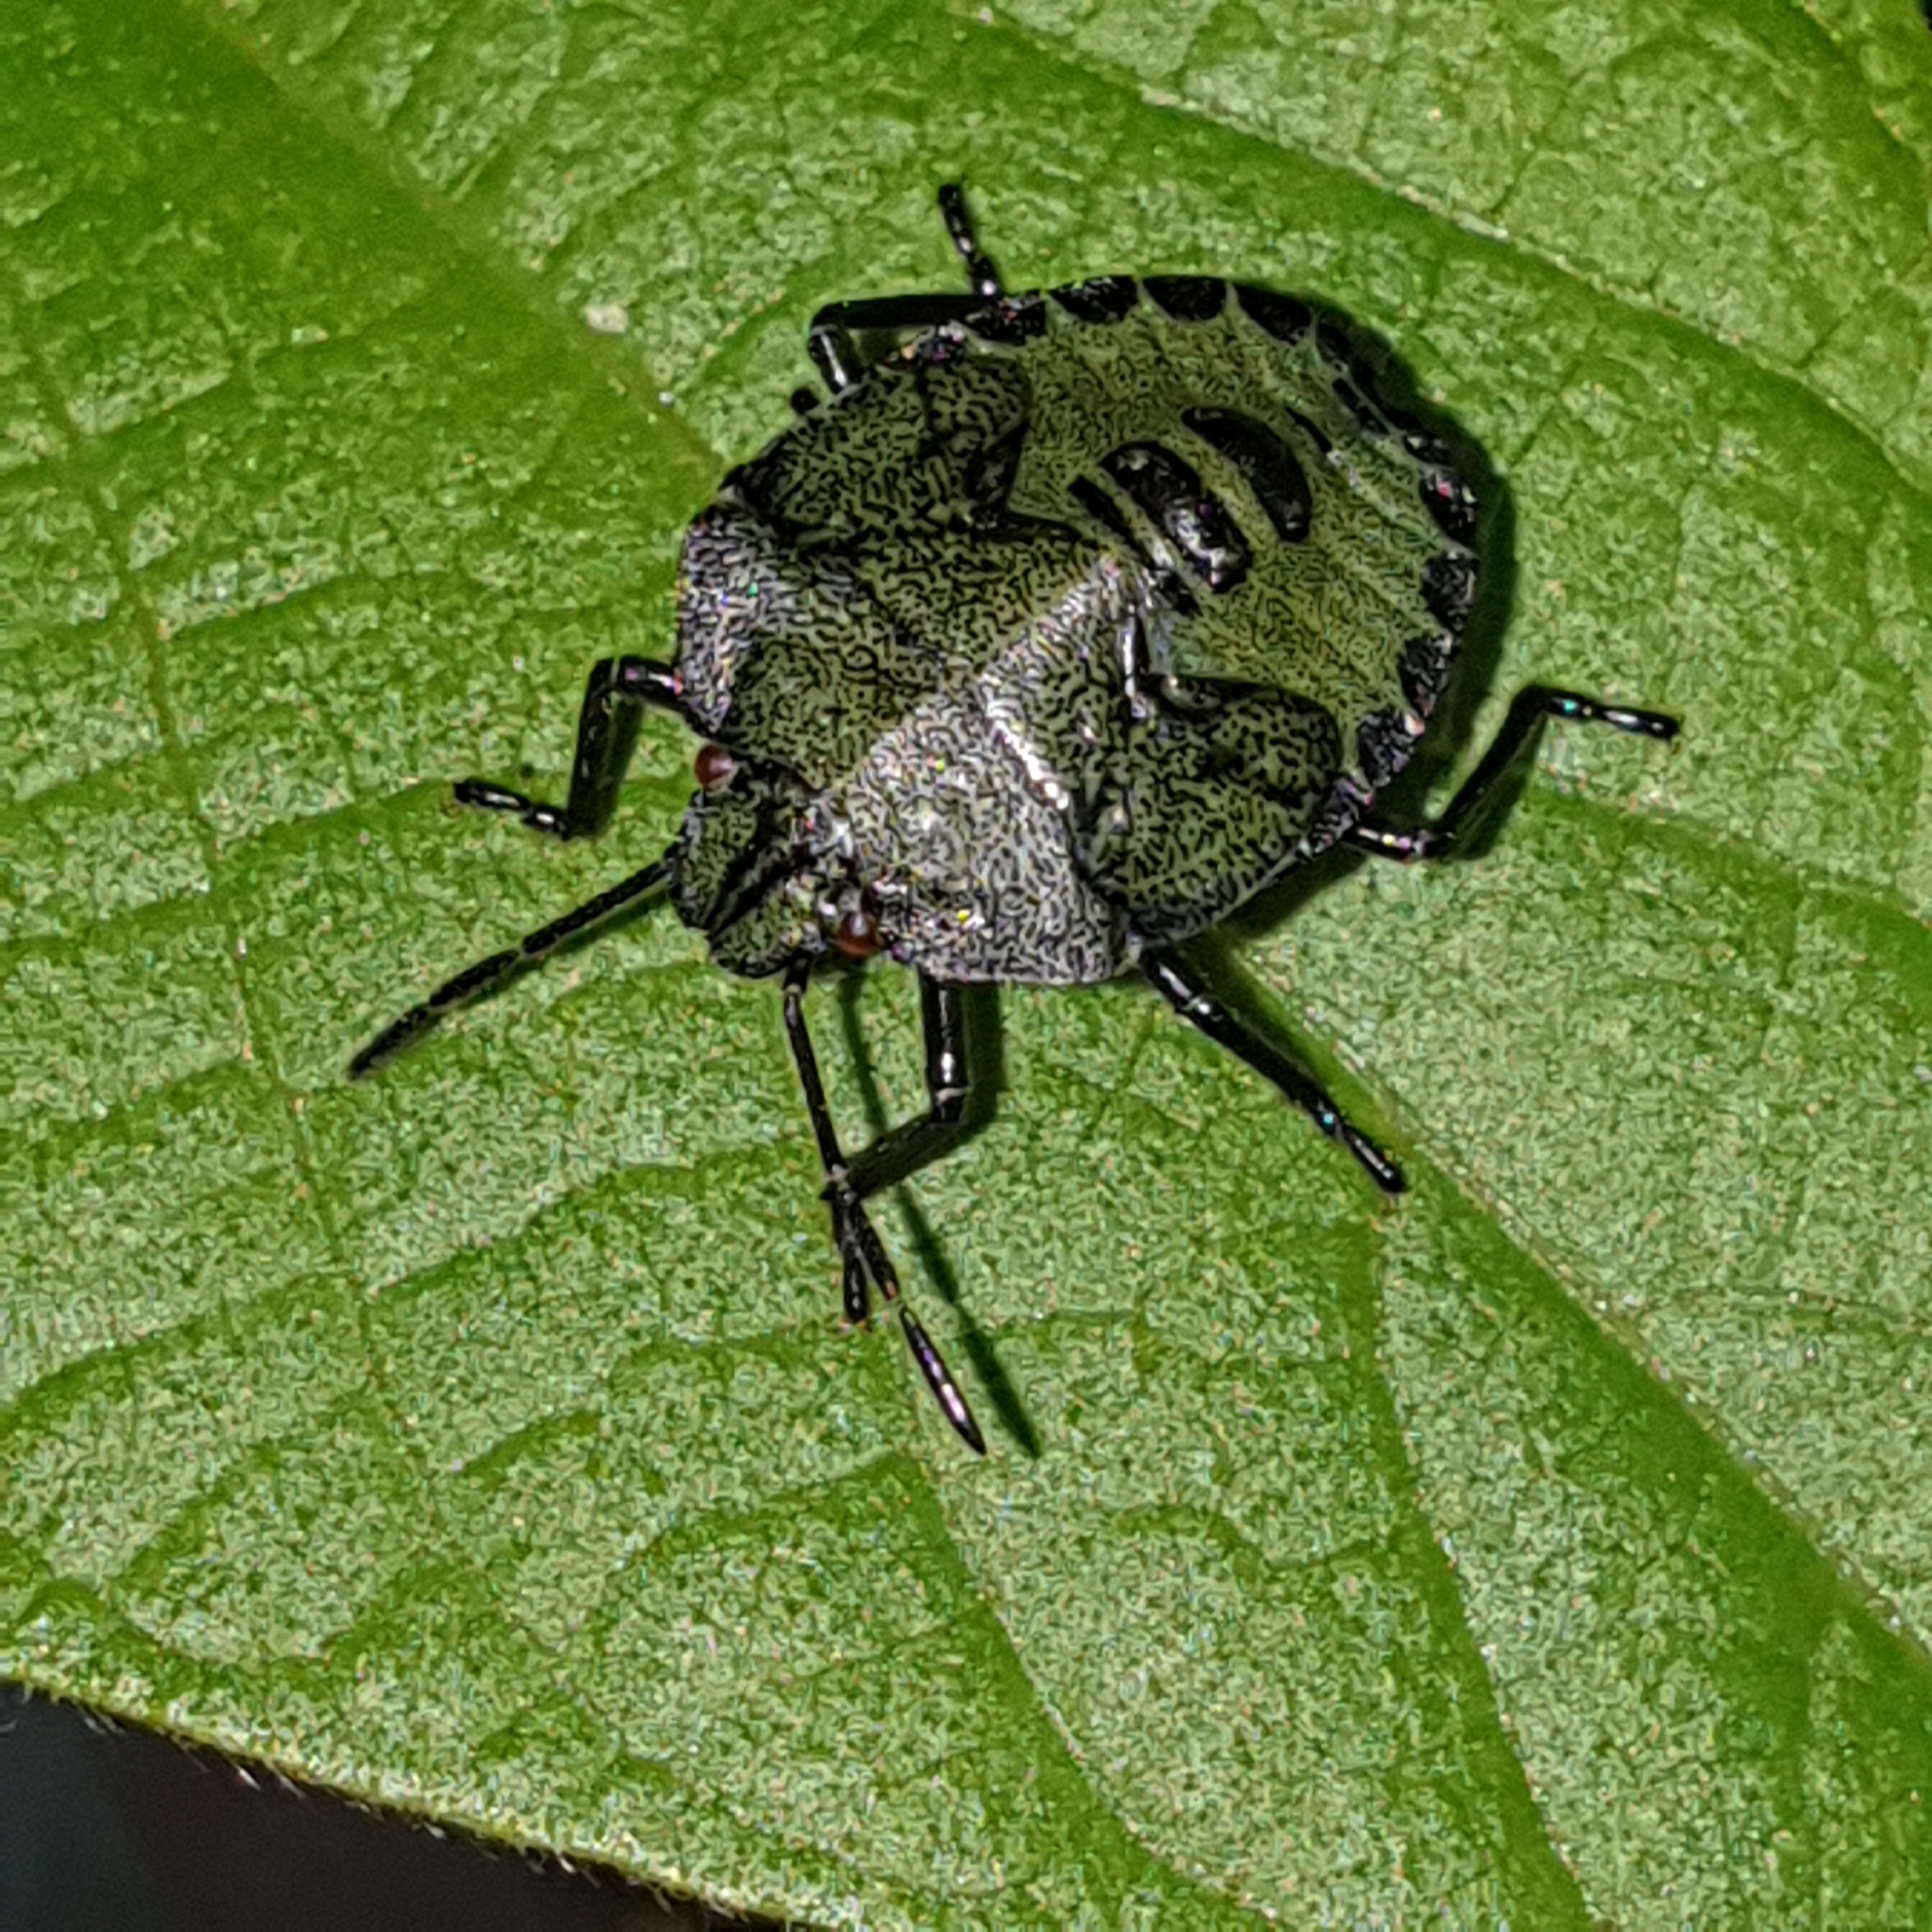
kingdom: Animalia
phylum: Arthropoda
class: Insecta
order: Hemiptera
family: Pentatomidae
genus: Palomena
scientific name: Palomena prasina
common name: Green shieldbug
